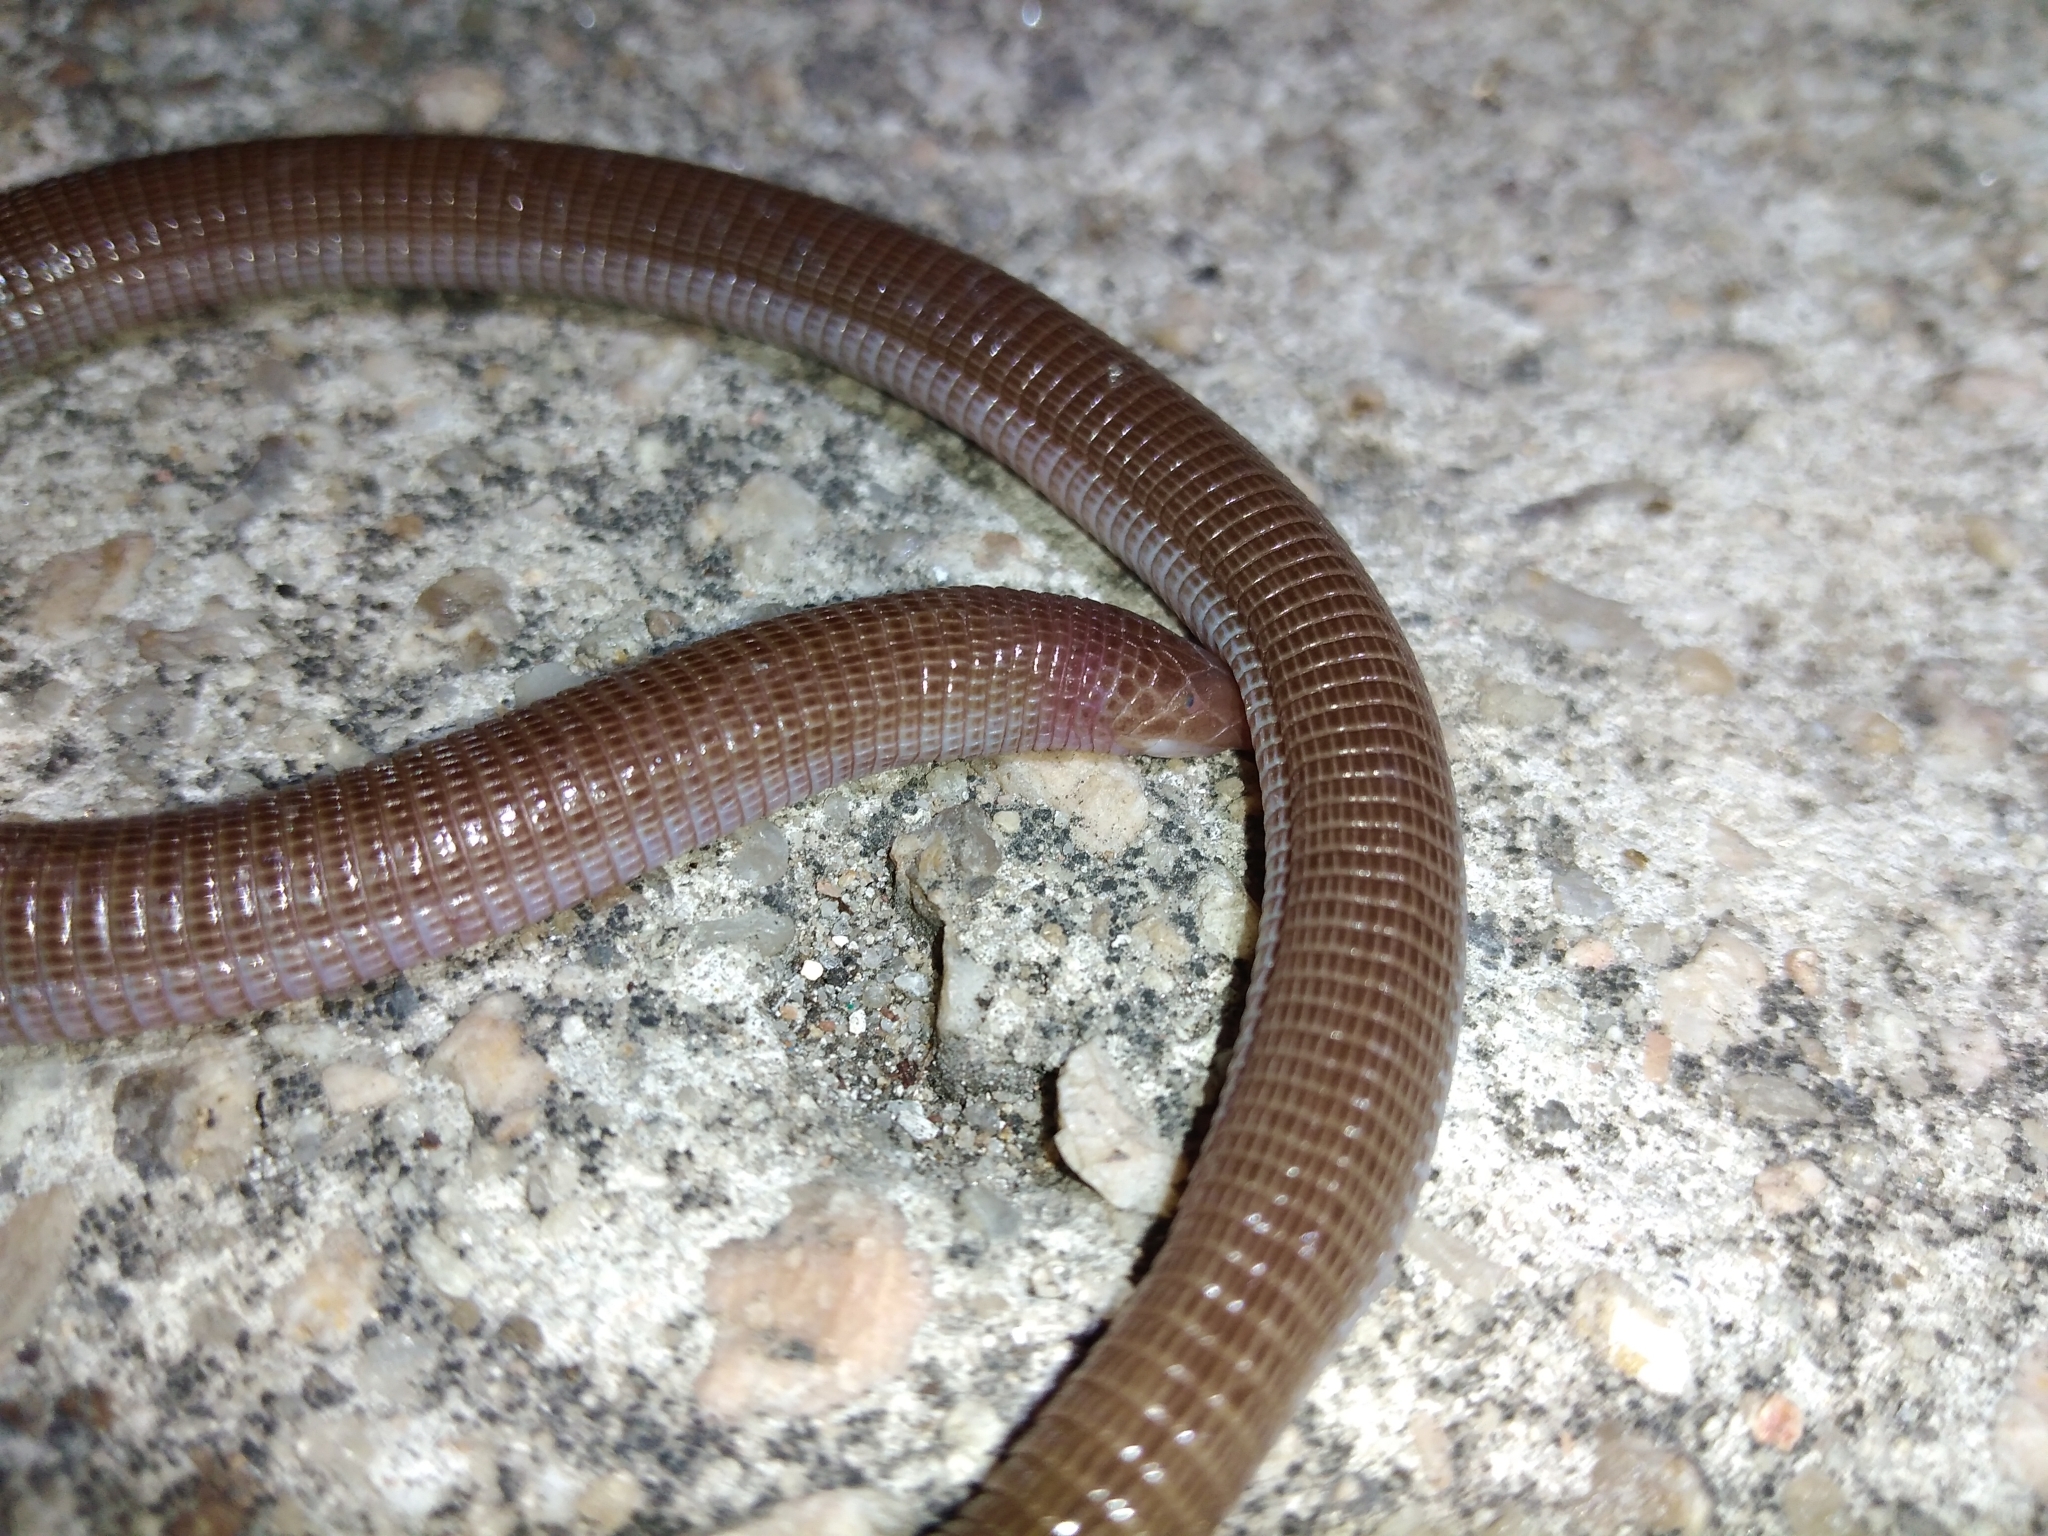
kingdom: Animalia
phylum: Chordata
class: Squamata
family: Amphisbaenidae
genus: Amphisbaena
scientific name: Amphisbaena darwinii
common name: Darwin's ringed worm lizard
